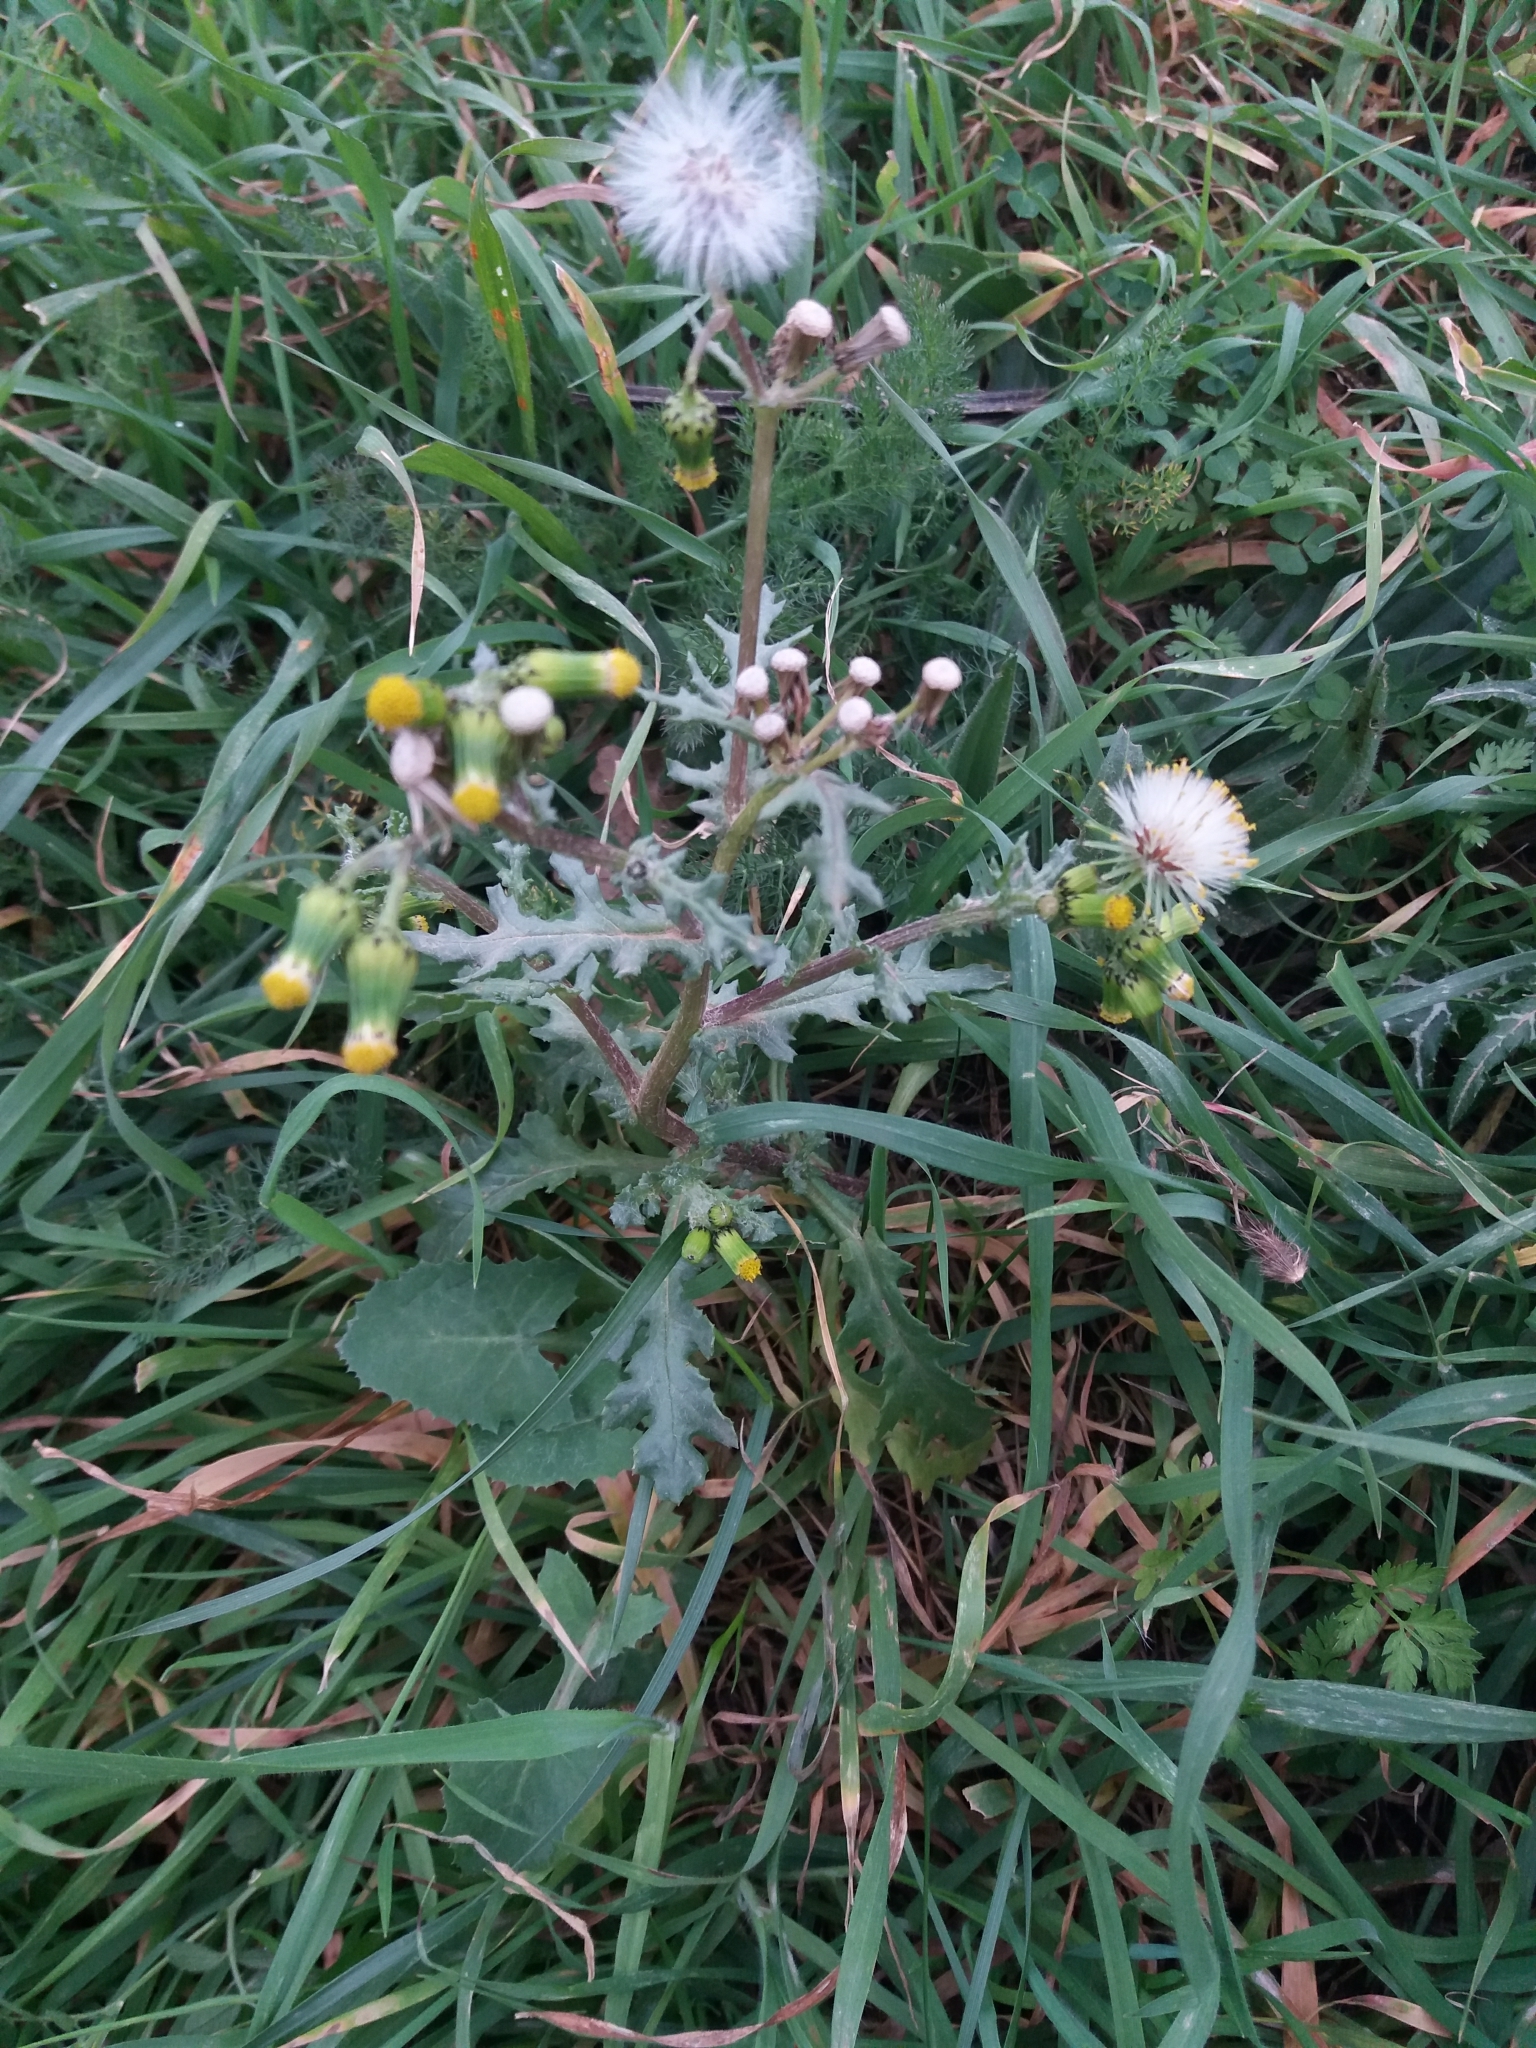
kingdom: Plantae
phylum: Tracheophyta
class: Magnoliopsida
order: Asterales
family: Asteraceae
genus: Senecio
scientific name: Senecio vulgaris
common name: Old-man-in-the-spring
